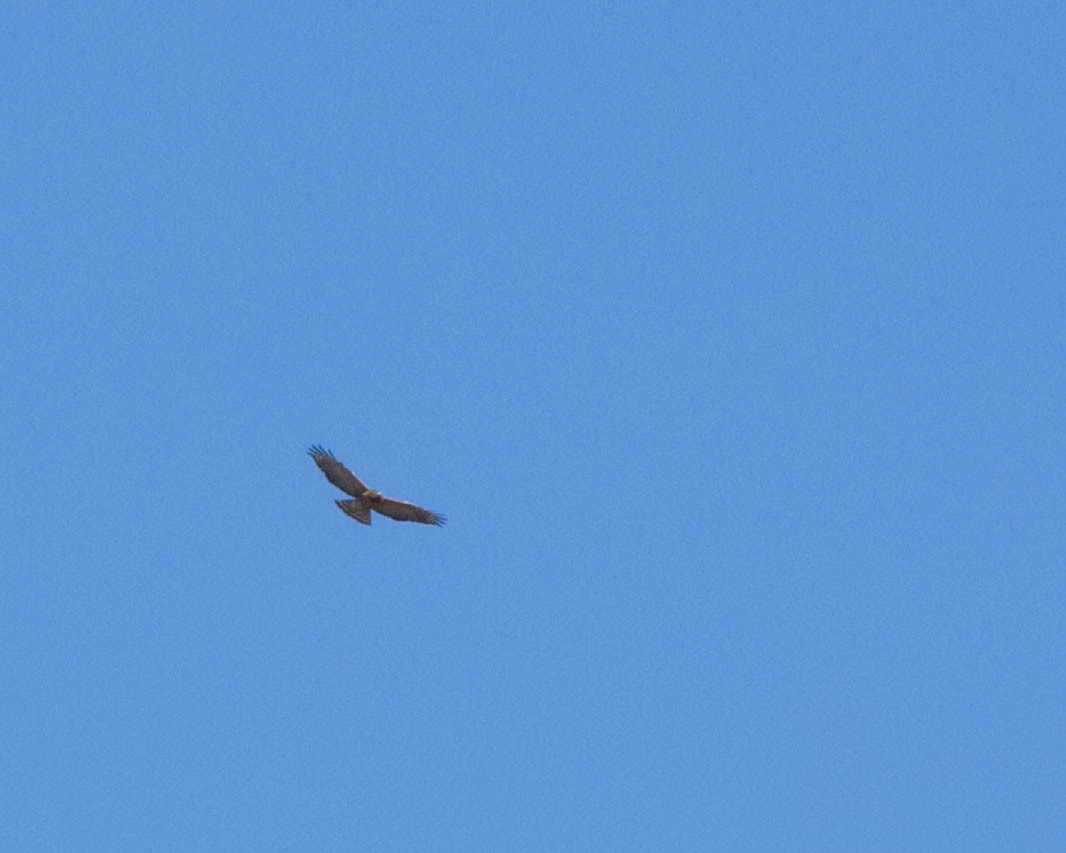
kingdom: Animalia
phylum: Chordata
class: Aves
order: Accipitriformes
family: Accipitridae
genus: Buteo
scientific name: Buteo lineatus
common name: Red-shouldered hawk
